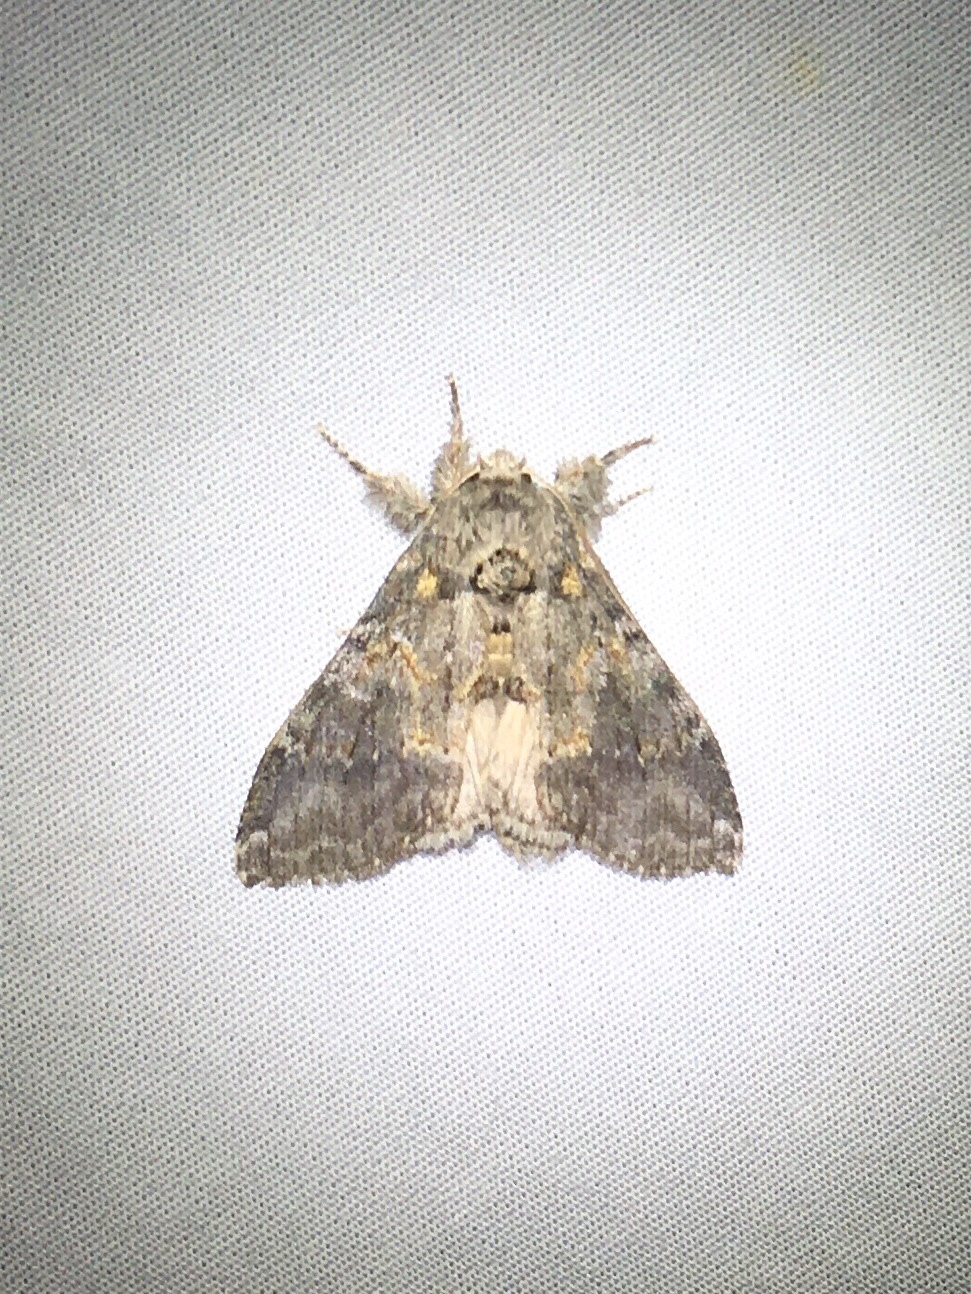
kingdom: Animalia
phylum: Arthropoda
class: Insecta
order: Lepidoptera
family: Notodontidae
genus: Peridea
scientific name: Peridea angulosa
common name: Angulose prominent
